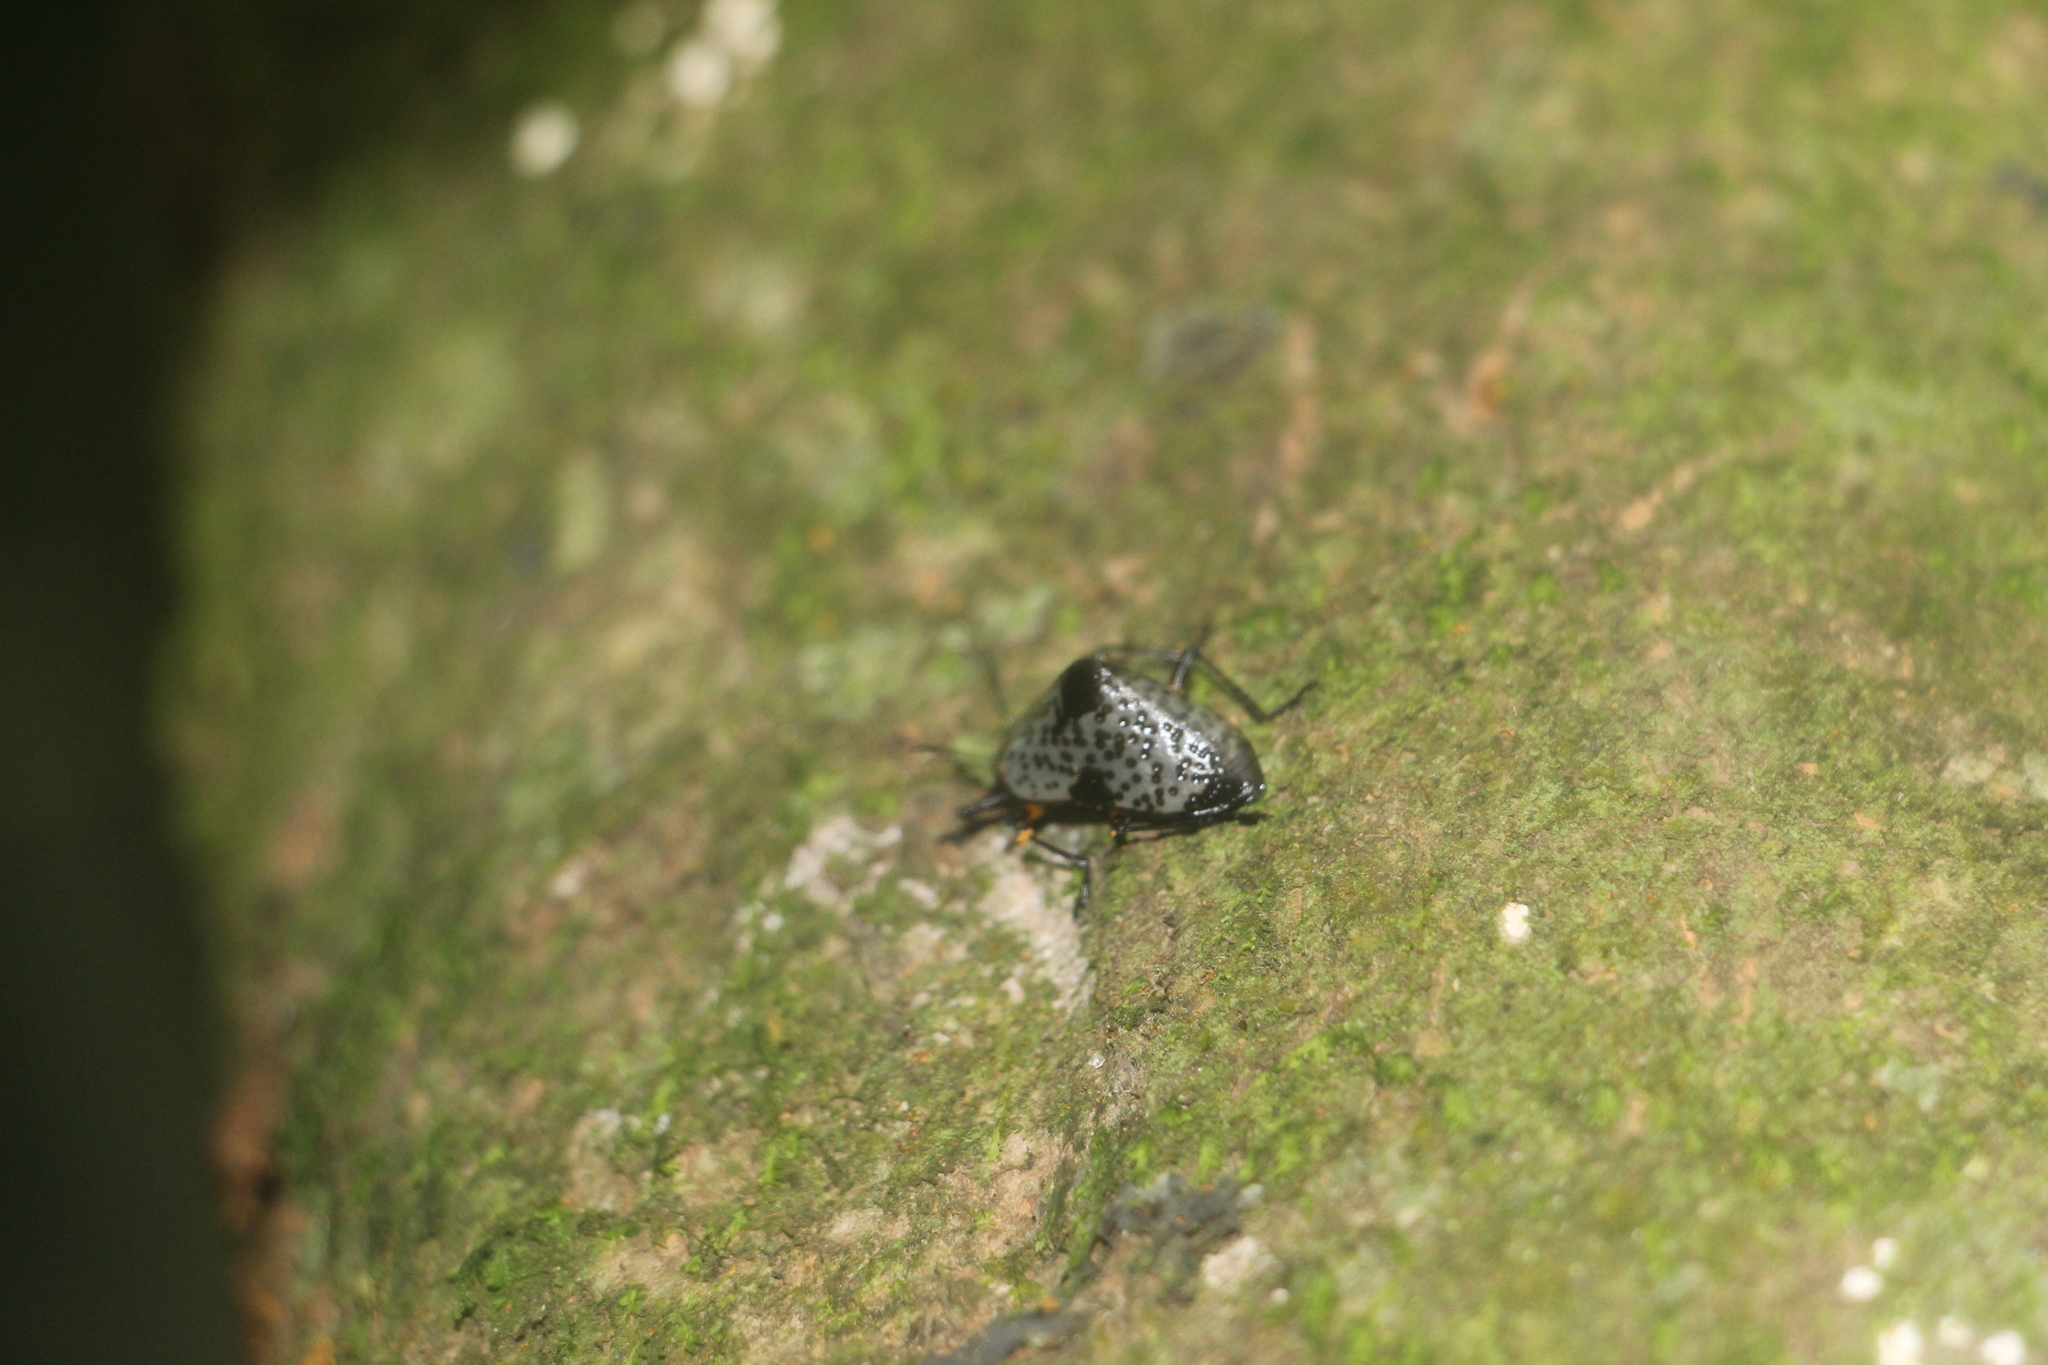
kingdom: Animalia
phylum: Arthropoda
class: Insecta
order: Coleoptera
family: Erotylidae
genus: Gibbifer
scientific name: Gibbifer
